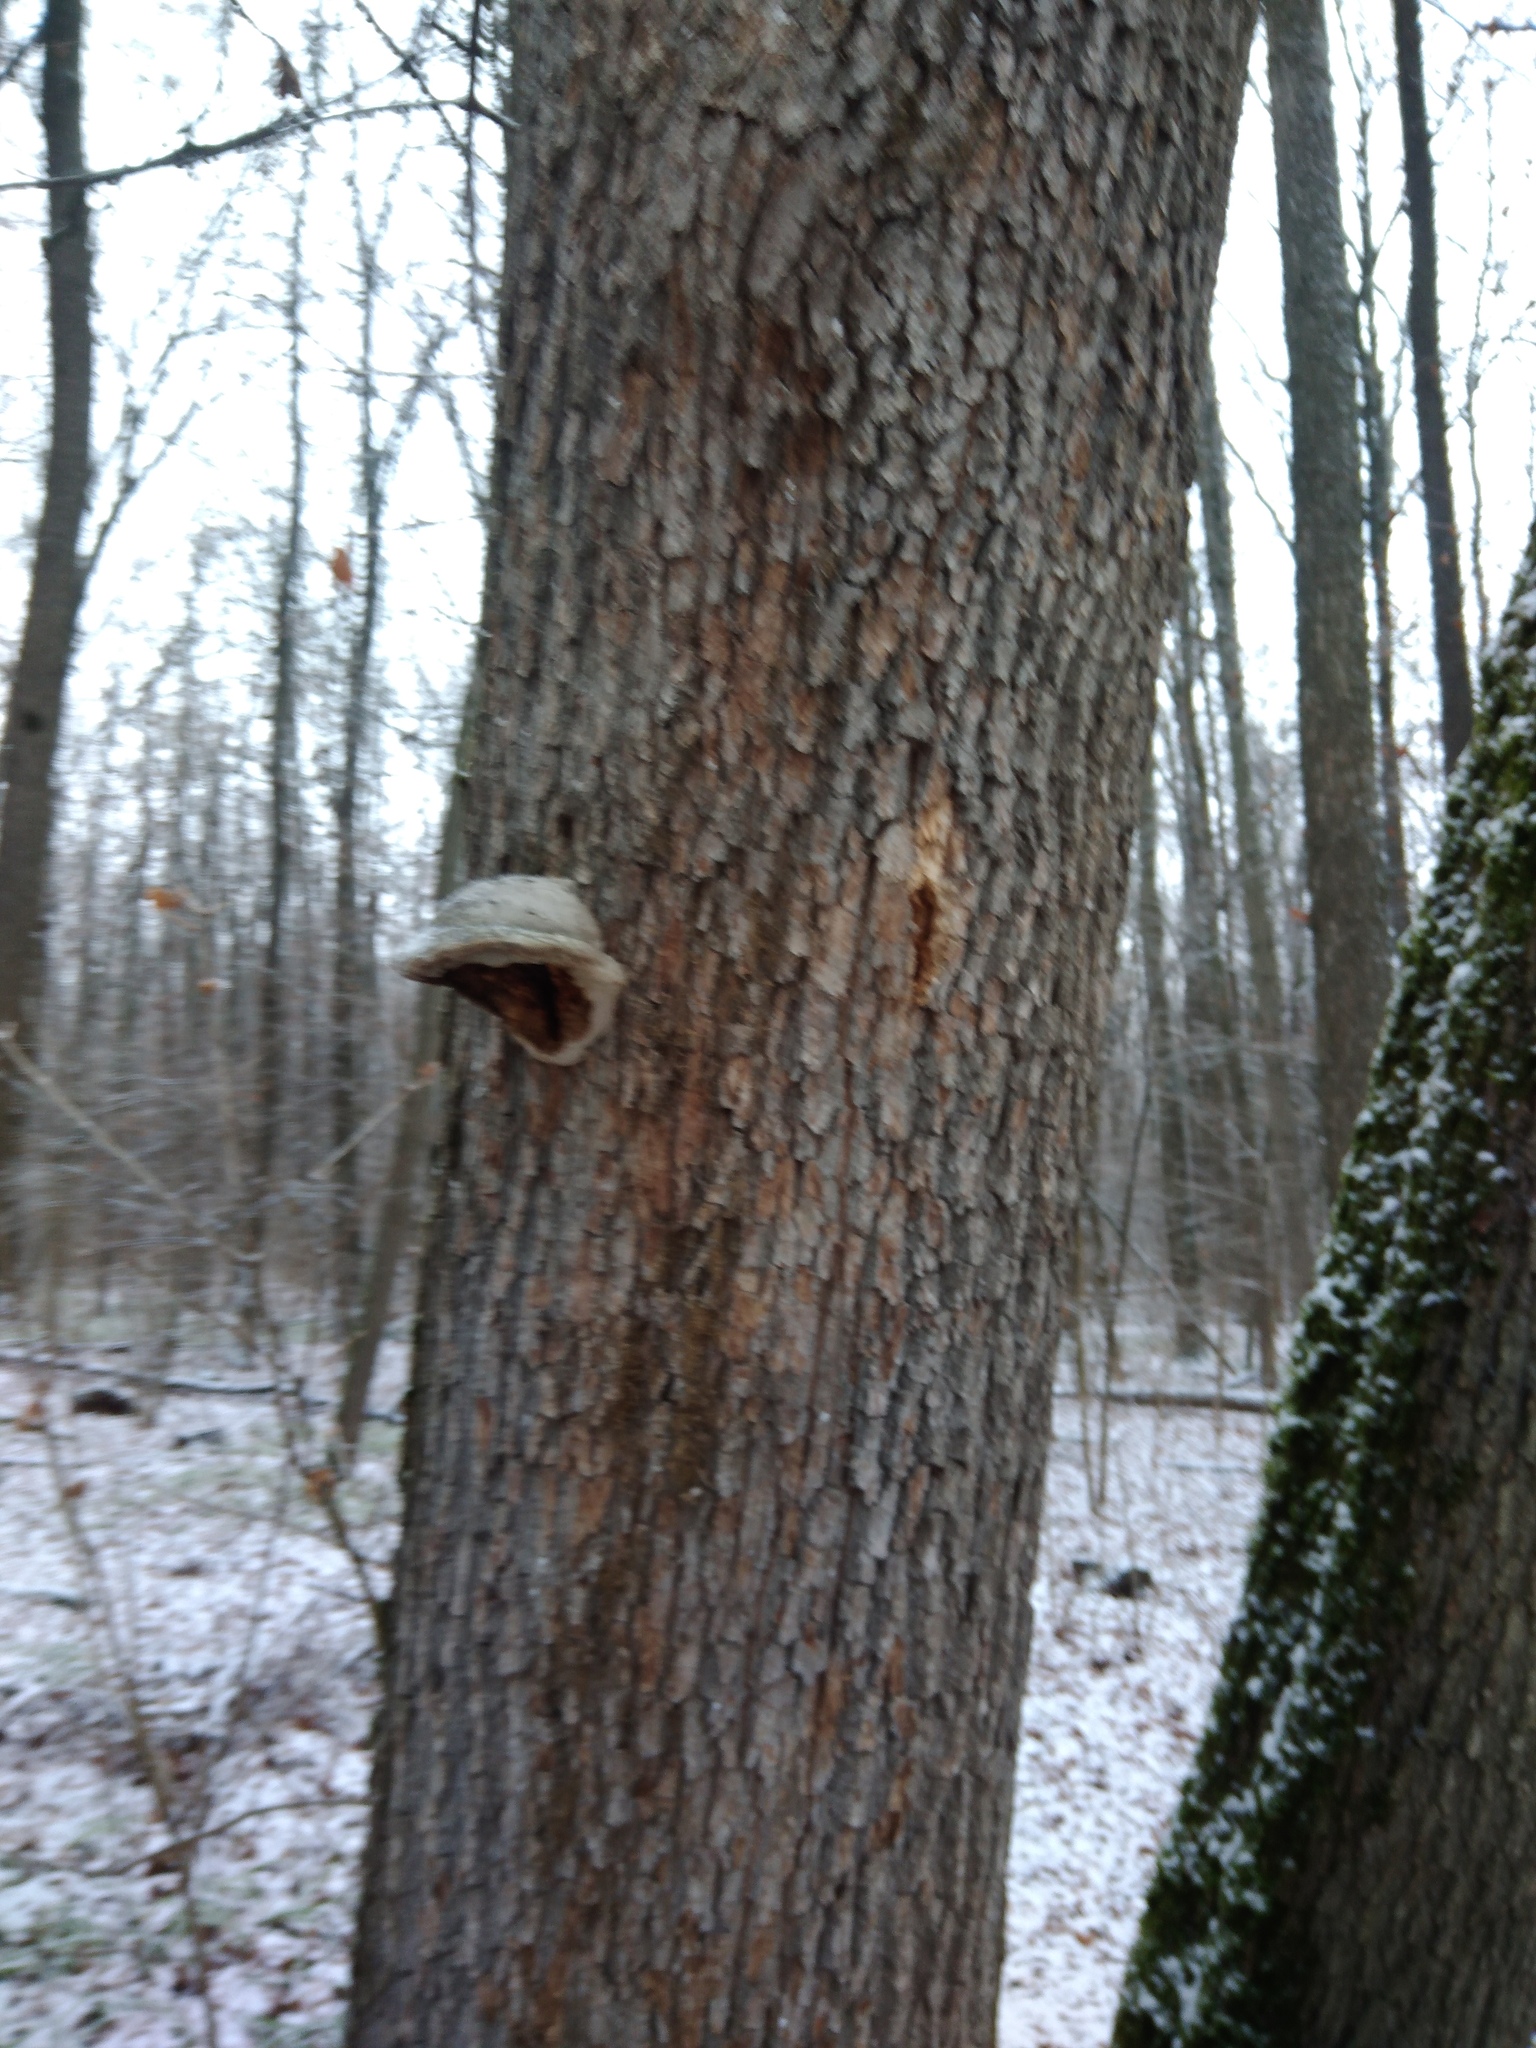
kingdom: Fungi
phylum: Basidiomycota
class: Agaricomycetes
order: Polyporales
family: Polyporaceae
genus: Fomes
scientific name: Fomes fomentarius
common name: Hoof fungus
